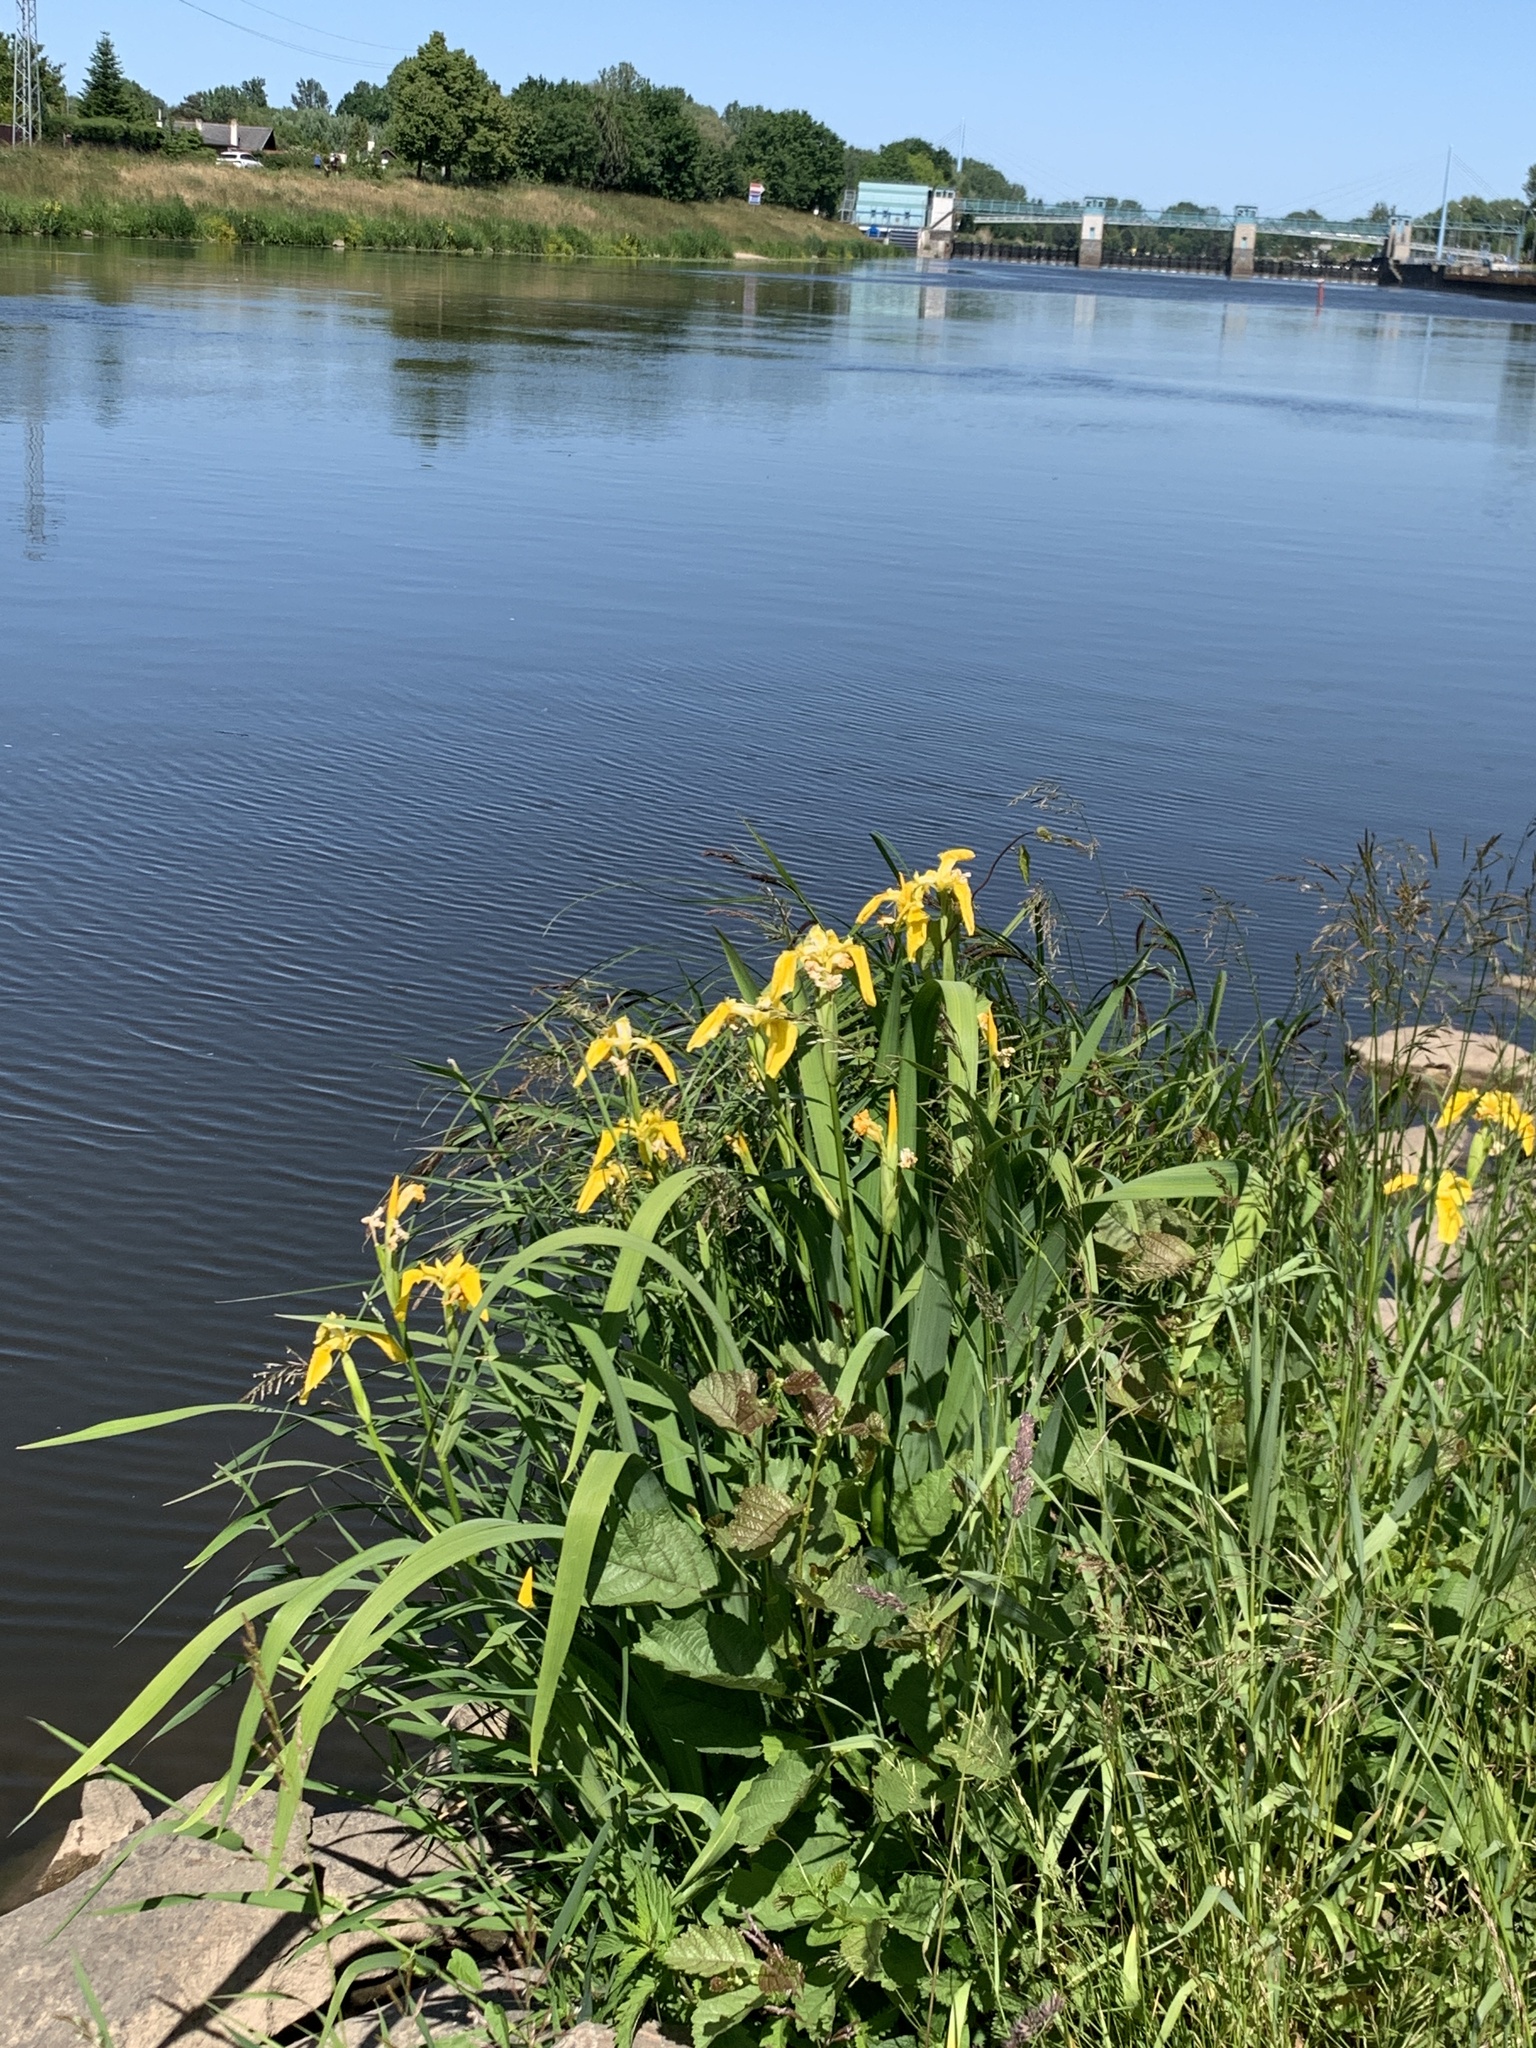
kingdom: Plantae
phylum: Tracheophyta
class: Liliopsida
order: Asparagales
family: Iridaceae
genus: Iris
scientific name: Iris pseudacorus
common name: Yellow flag
